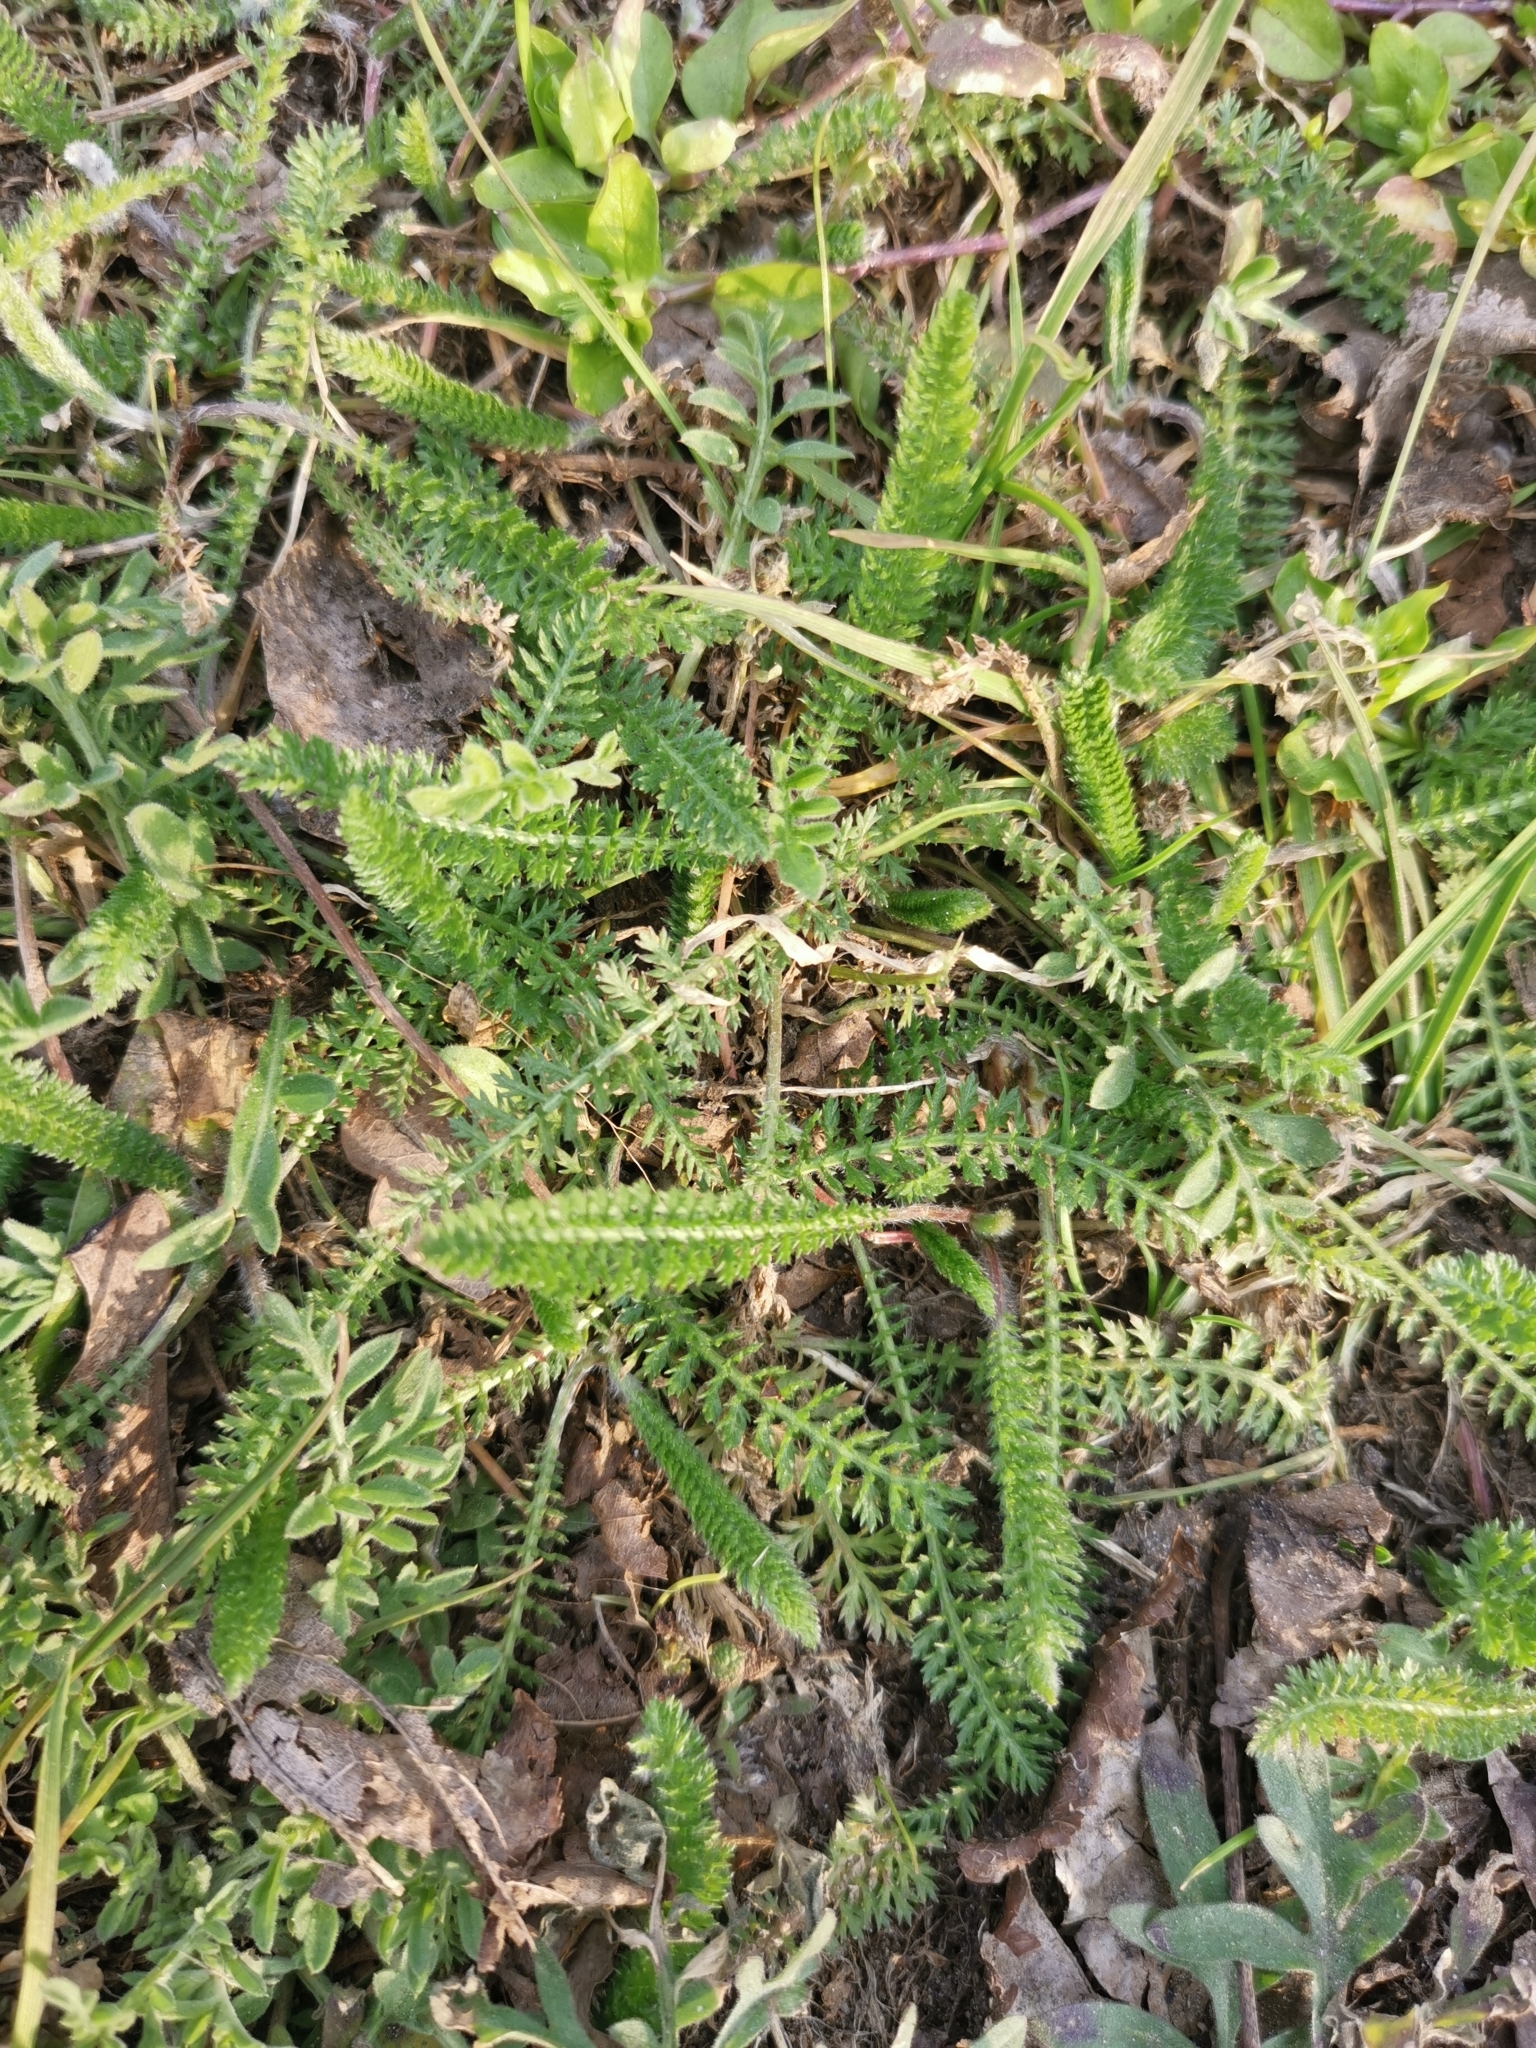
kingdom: Plantae
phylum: Tracheophyta
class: Magnoliopsida
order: Asterales
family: Asteraceae
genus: Achillea
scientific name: Achillea millefolium
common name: Yarrow
